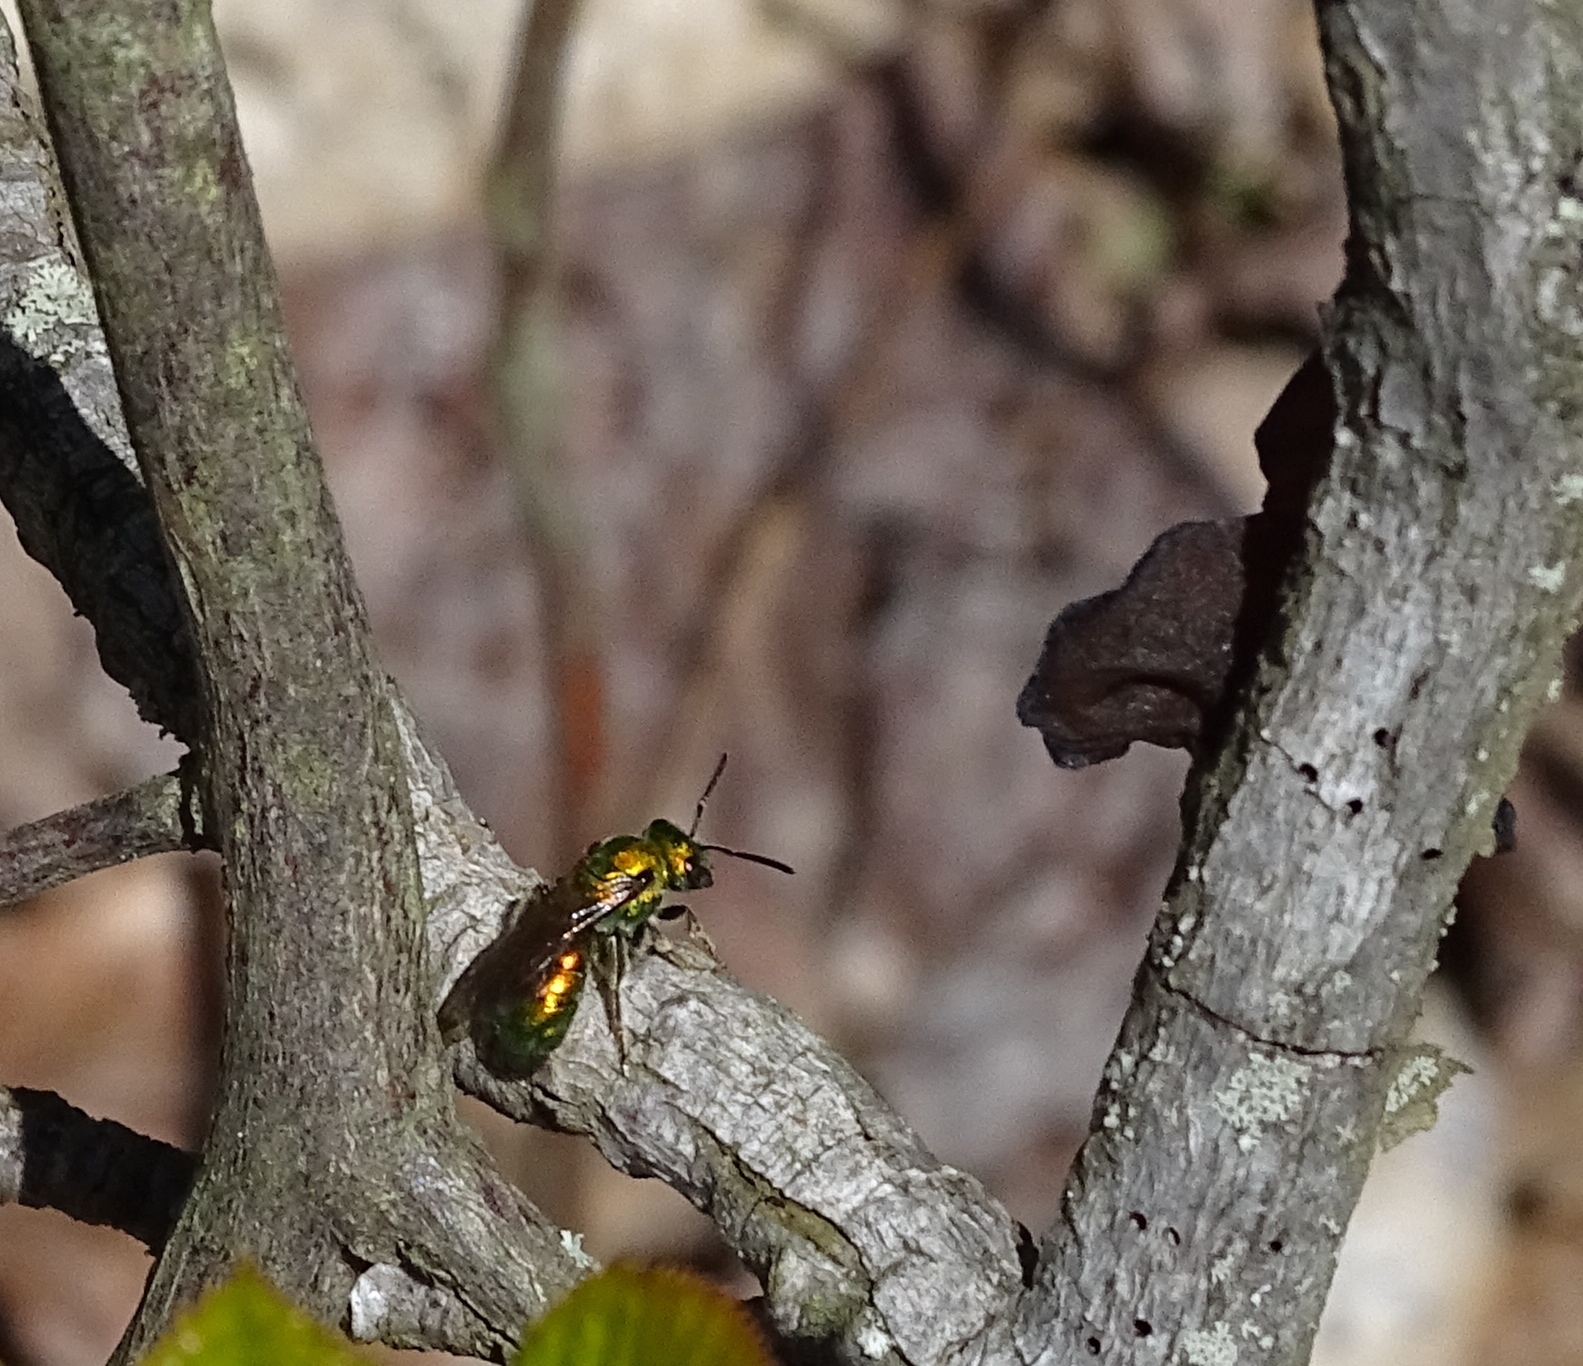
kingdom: Animalia
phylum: Arthropoda
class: Insecta
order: Hymenoptera
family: Halictidae
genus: Augochlora
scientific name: Augochlora pura
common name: Pure green sweat bee
